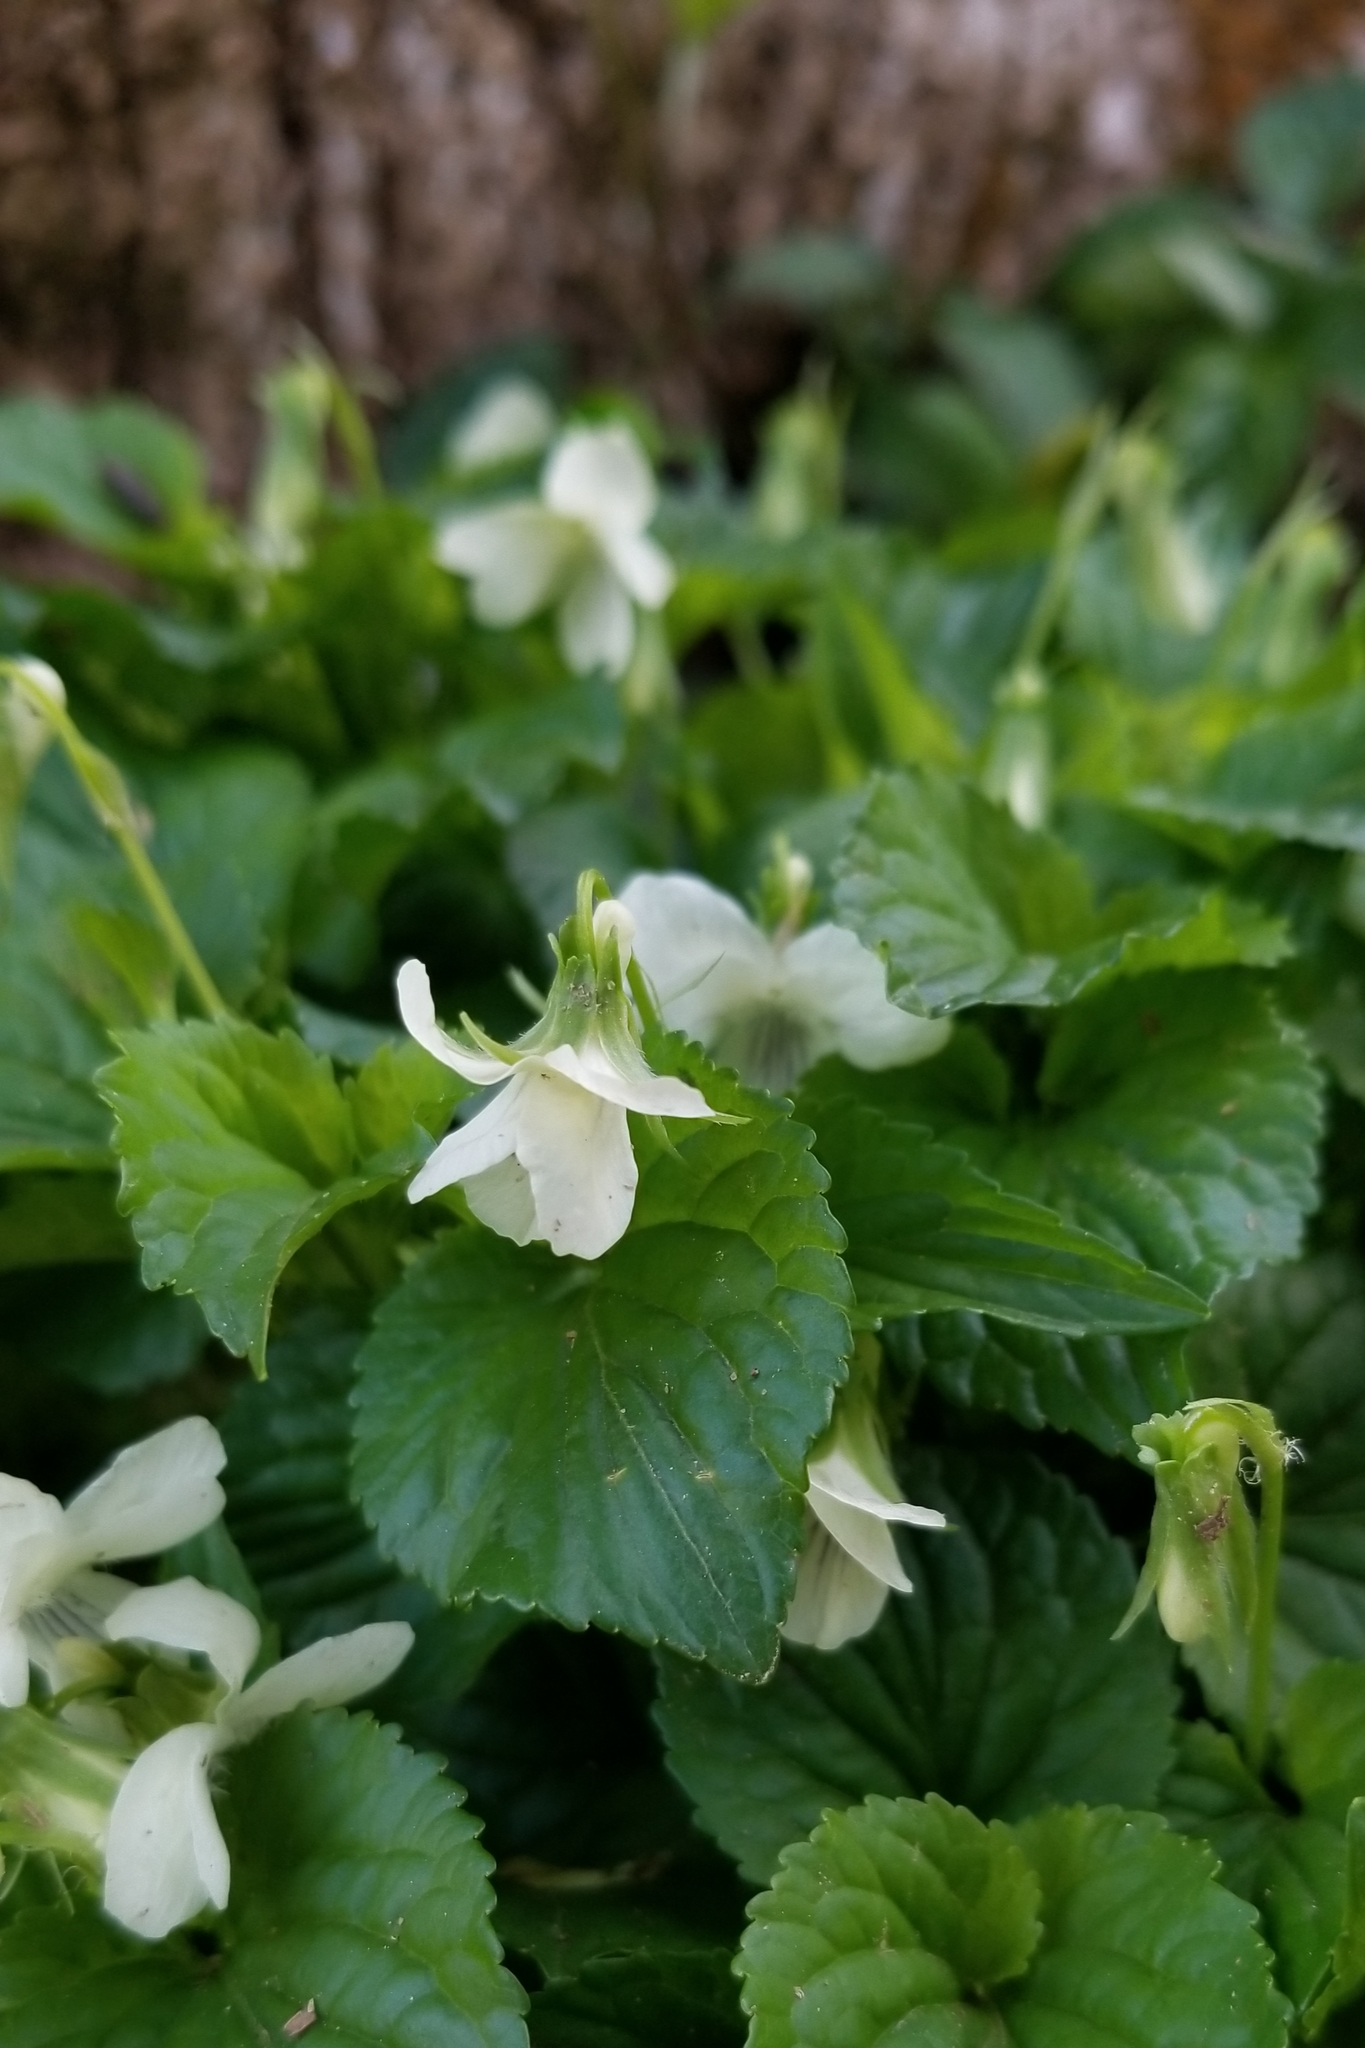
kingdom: Plantae
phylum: Tracheophyta
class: Magnoliopsida
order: Malpighiales
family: Violaceae
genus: Viola
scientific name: Viola striata
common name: Cream violet
